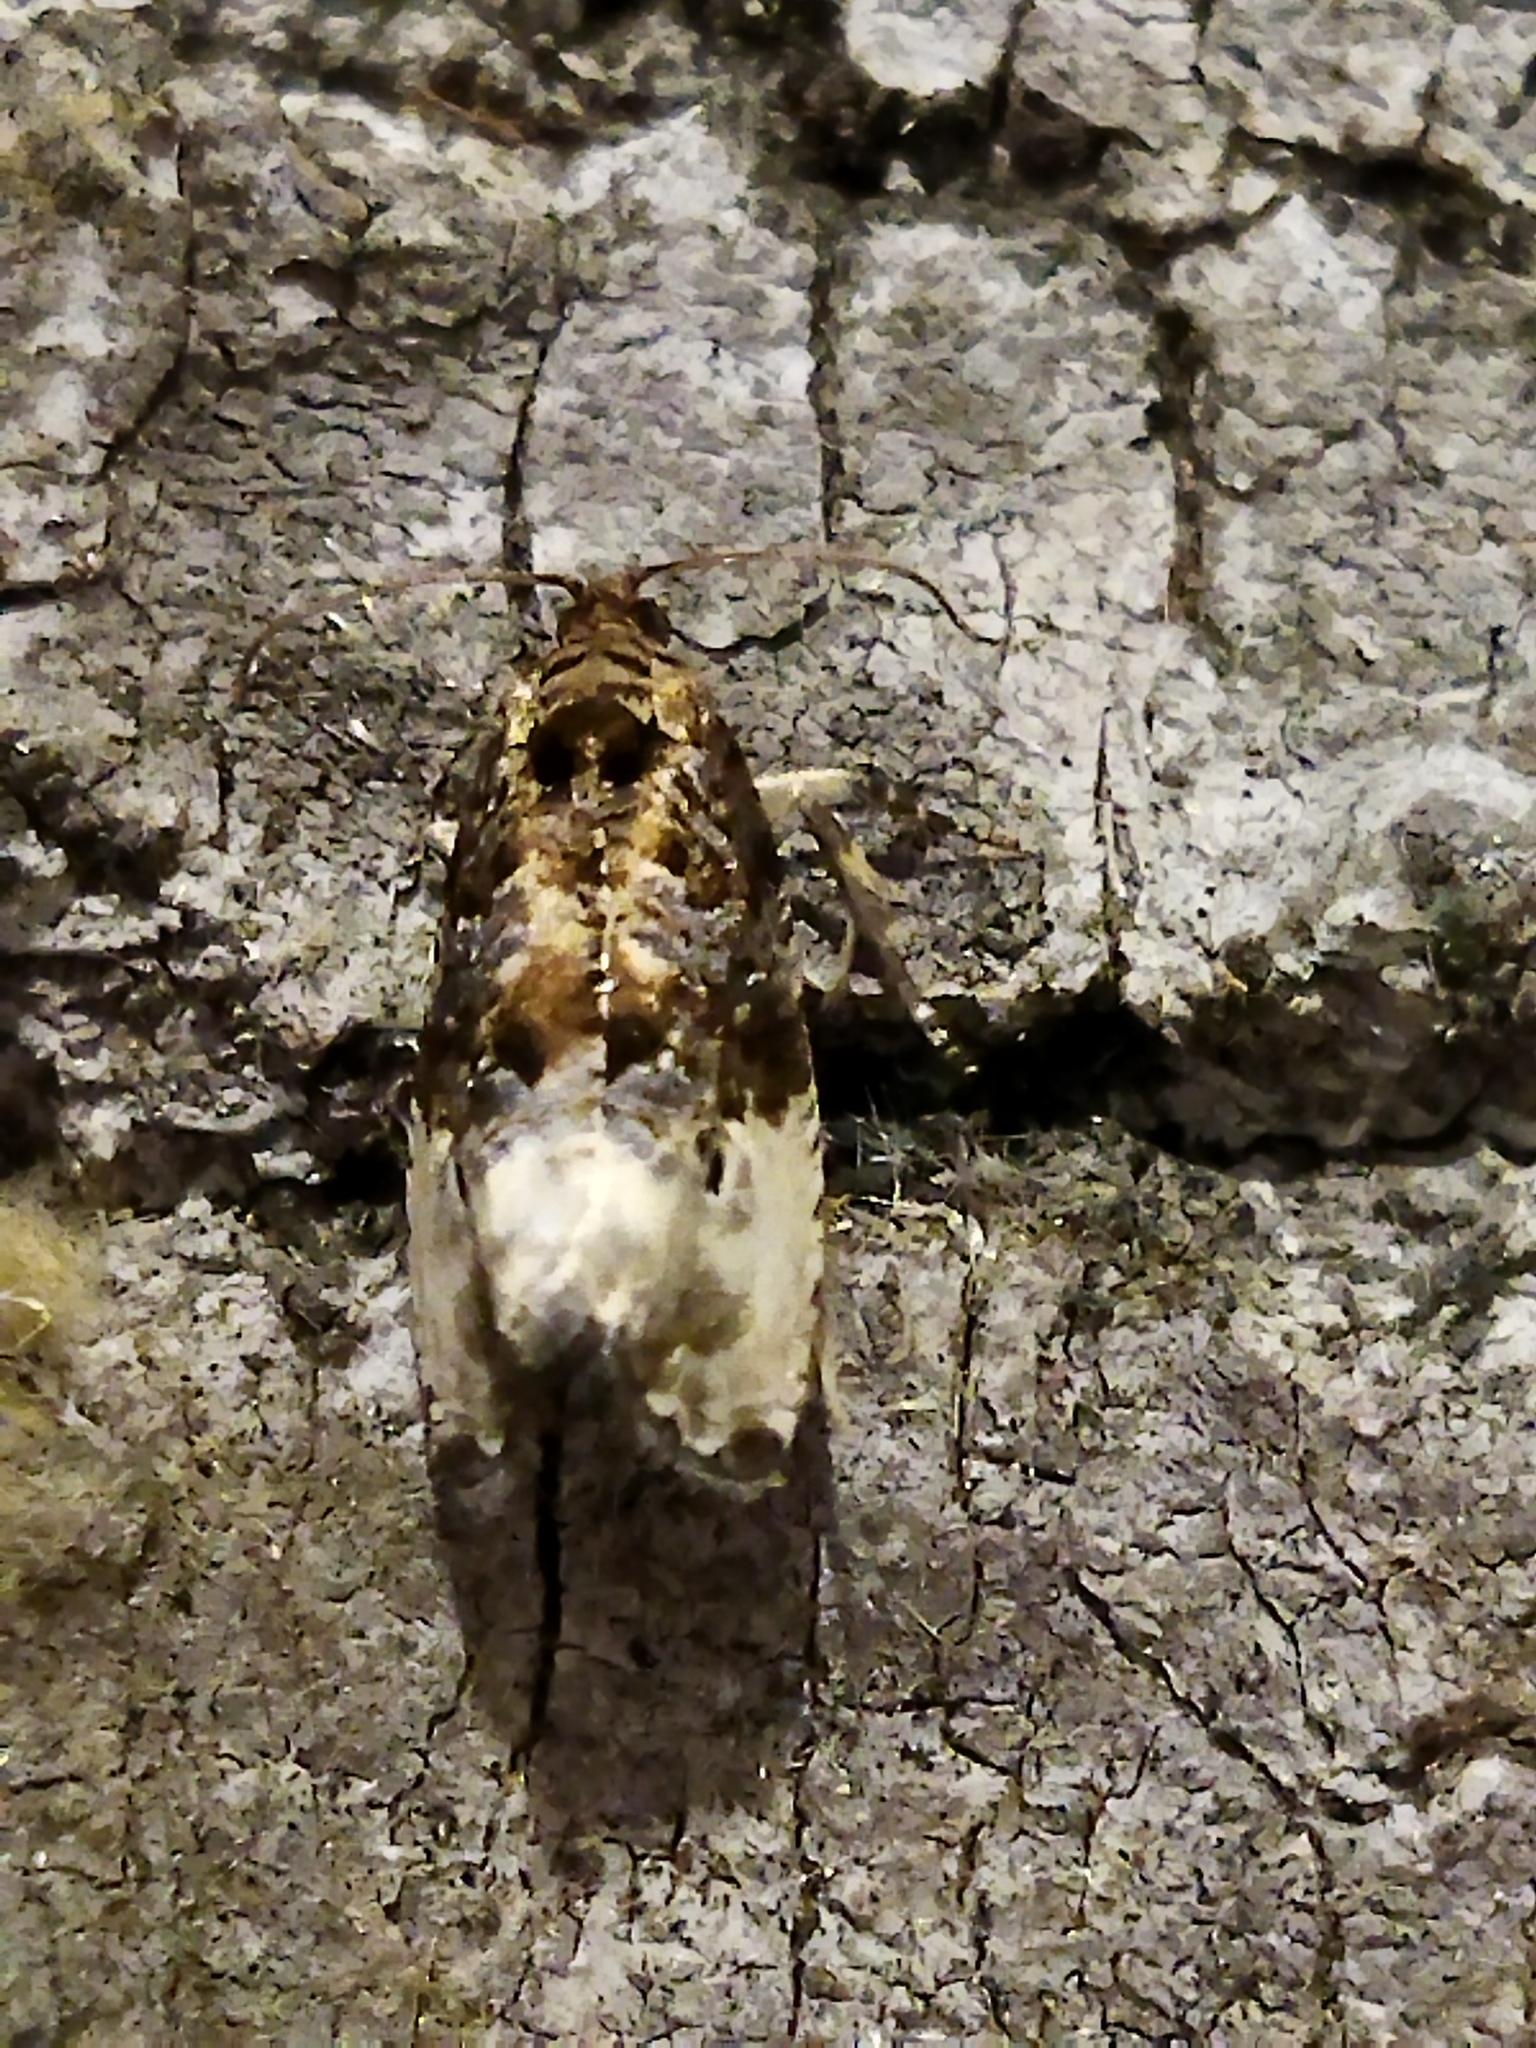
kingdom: Animalia
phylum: Arthropoda
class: Insecta
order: Lepidoptera
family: Tortricidae
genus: Hedya
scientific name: Hedya nubiferana
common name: Marbled orchard tortrix
